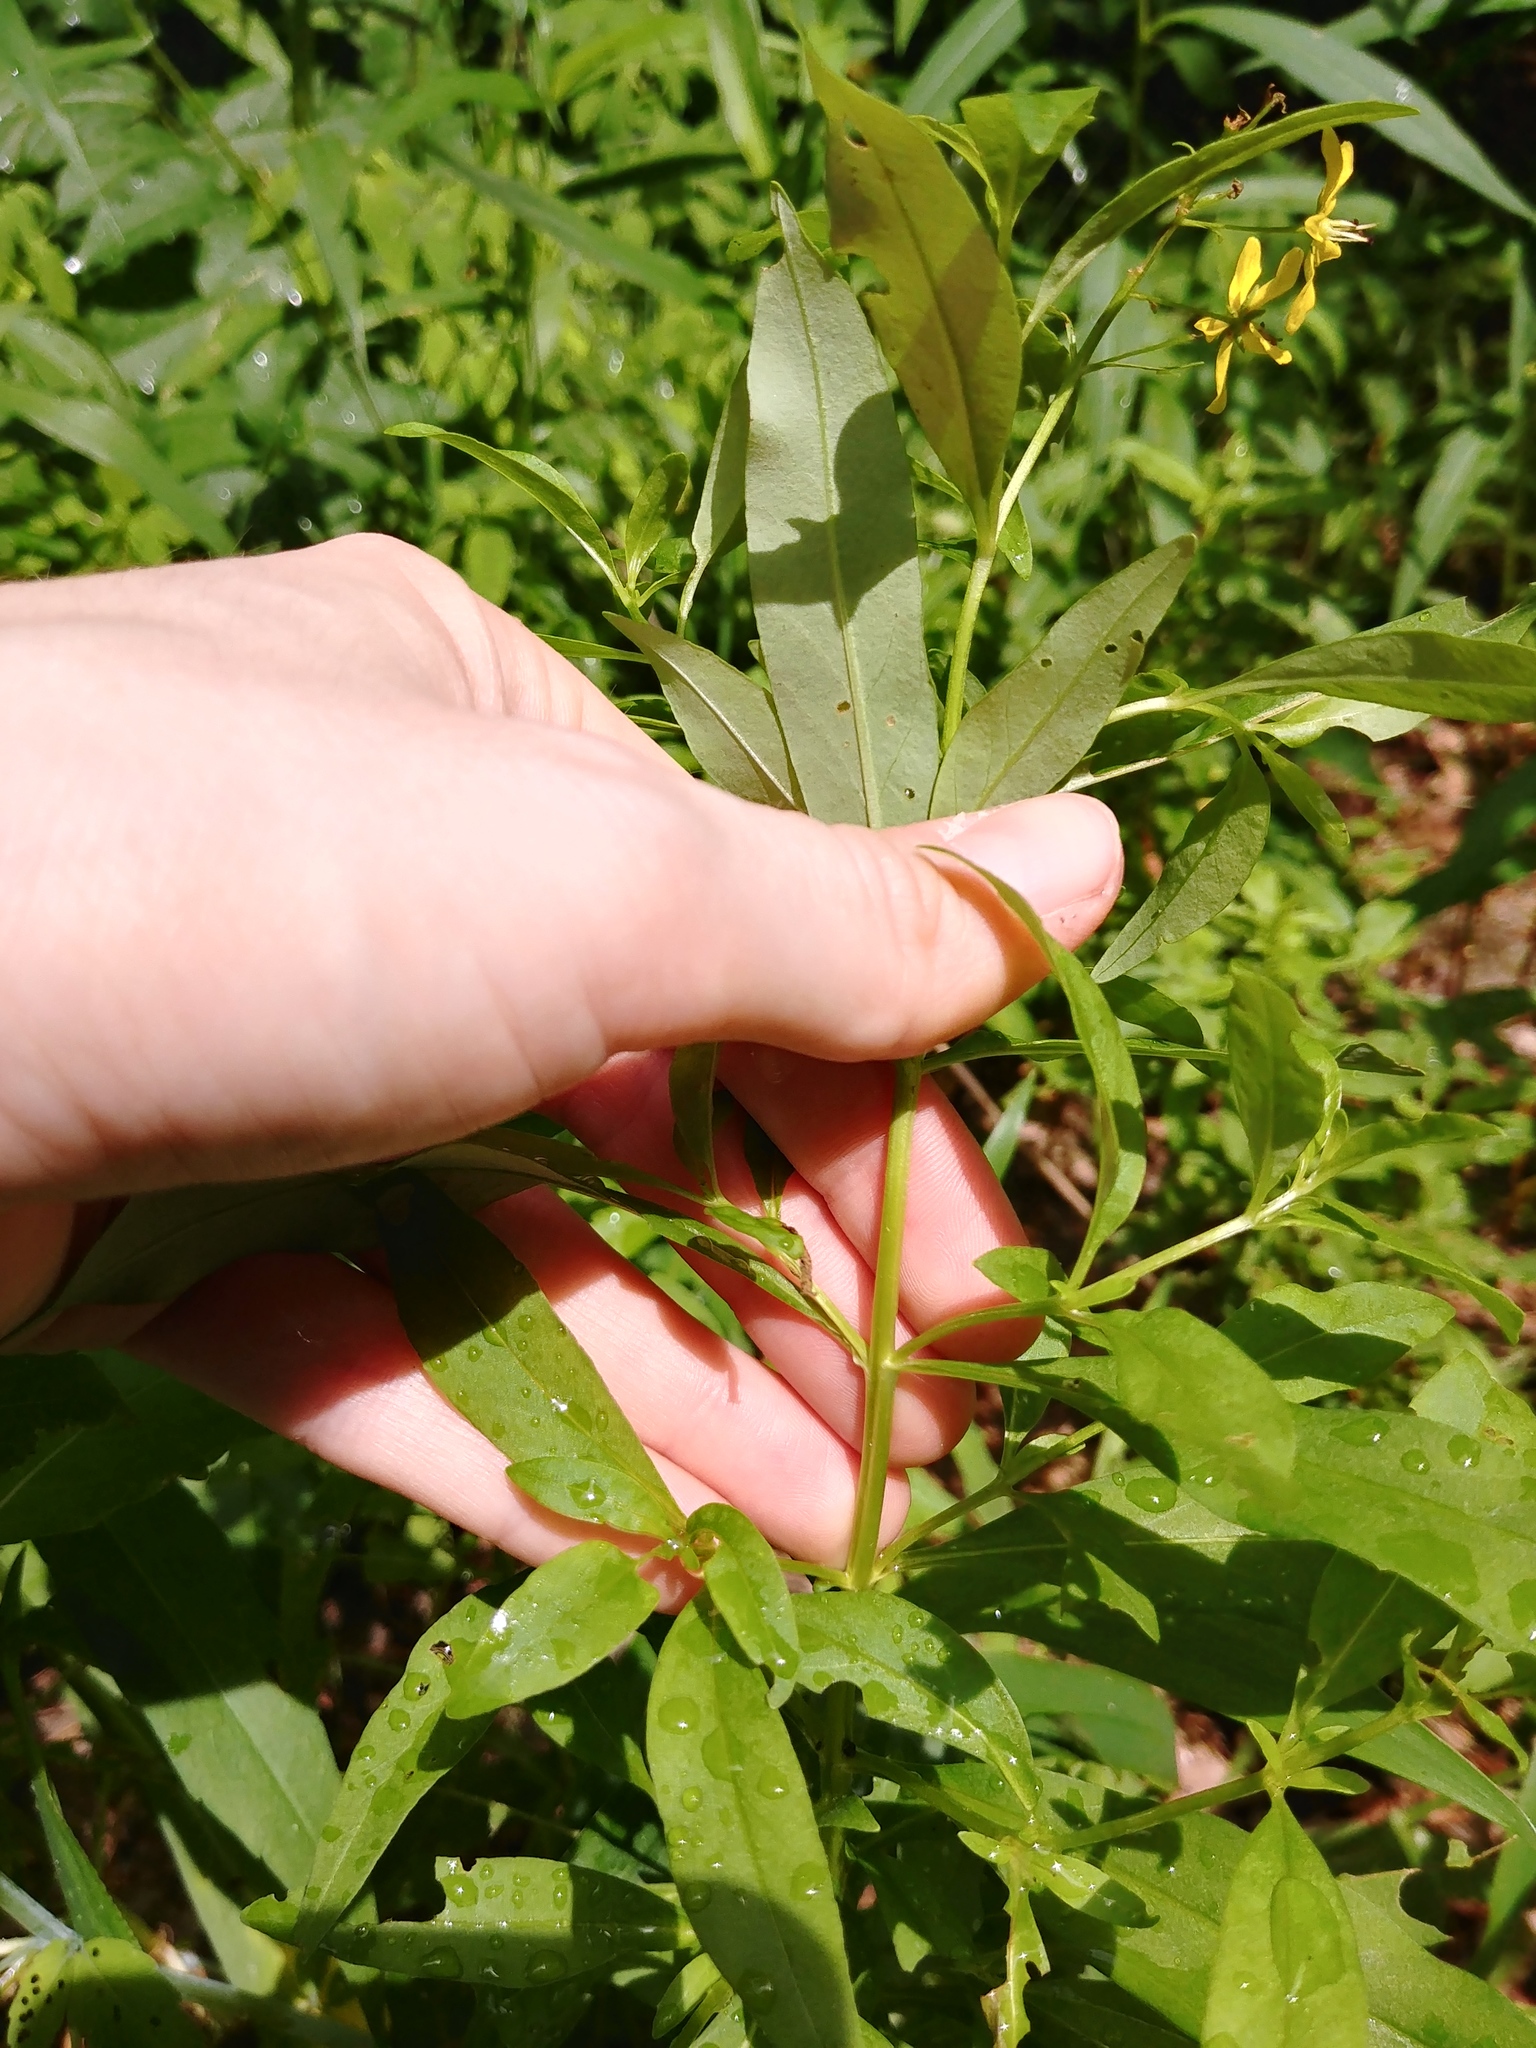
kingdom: Plantae
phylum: Tracheophyta
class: Magnoliopsida
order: Ericales
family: Primulaceae
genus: Lysimachia
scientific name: Lysimachia terrestris
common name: Lake loosestrife
